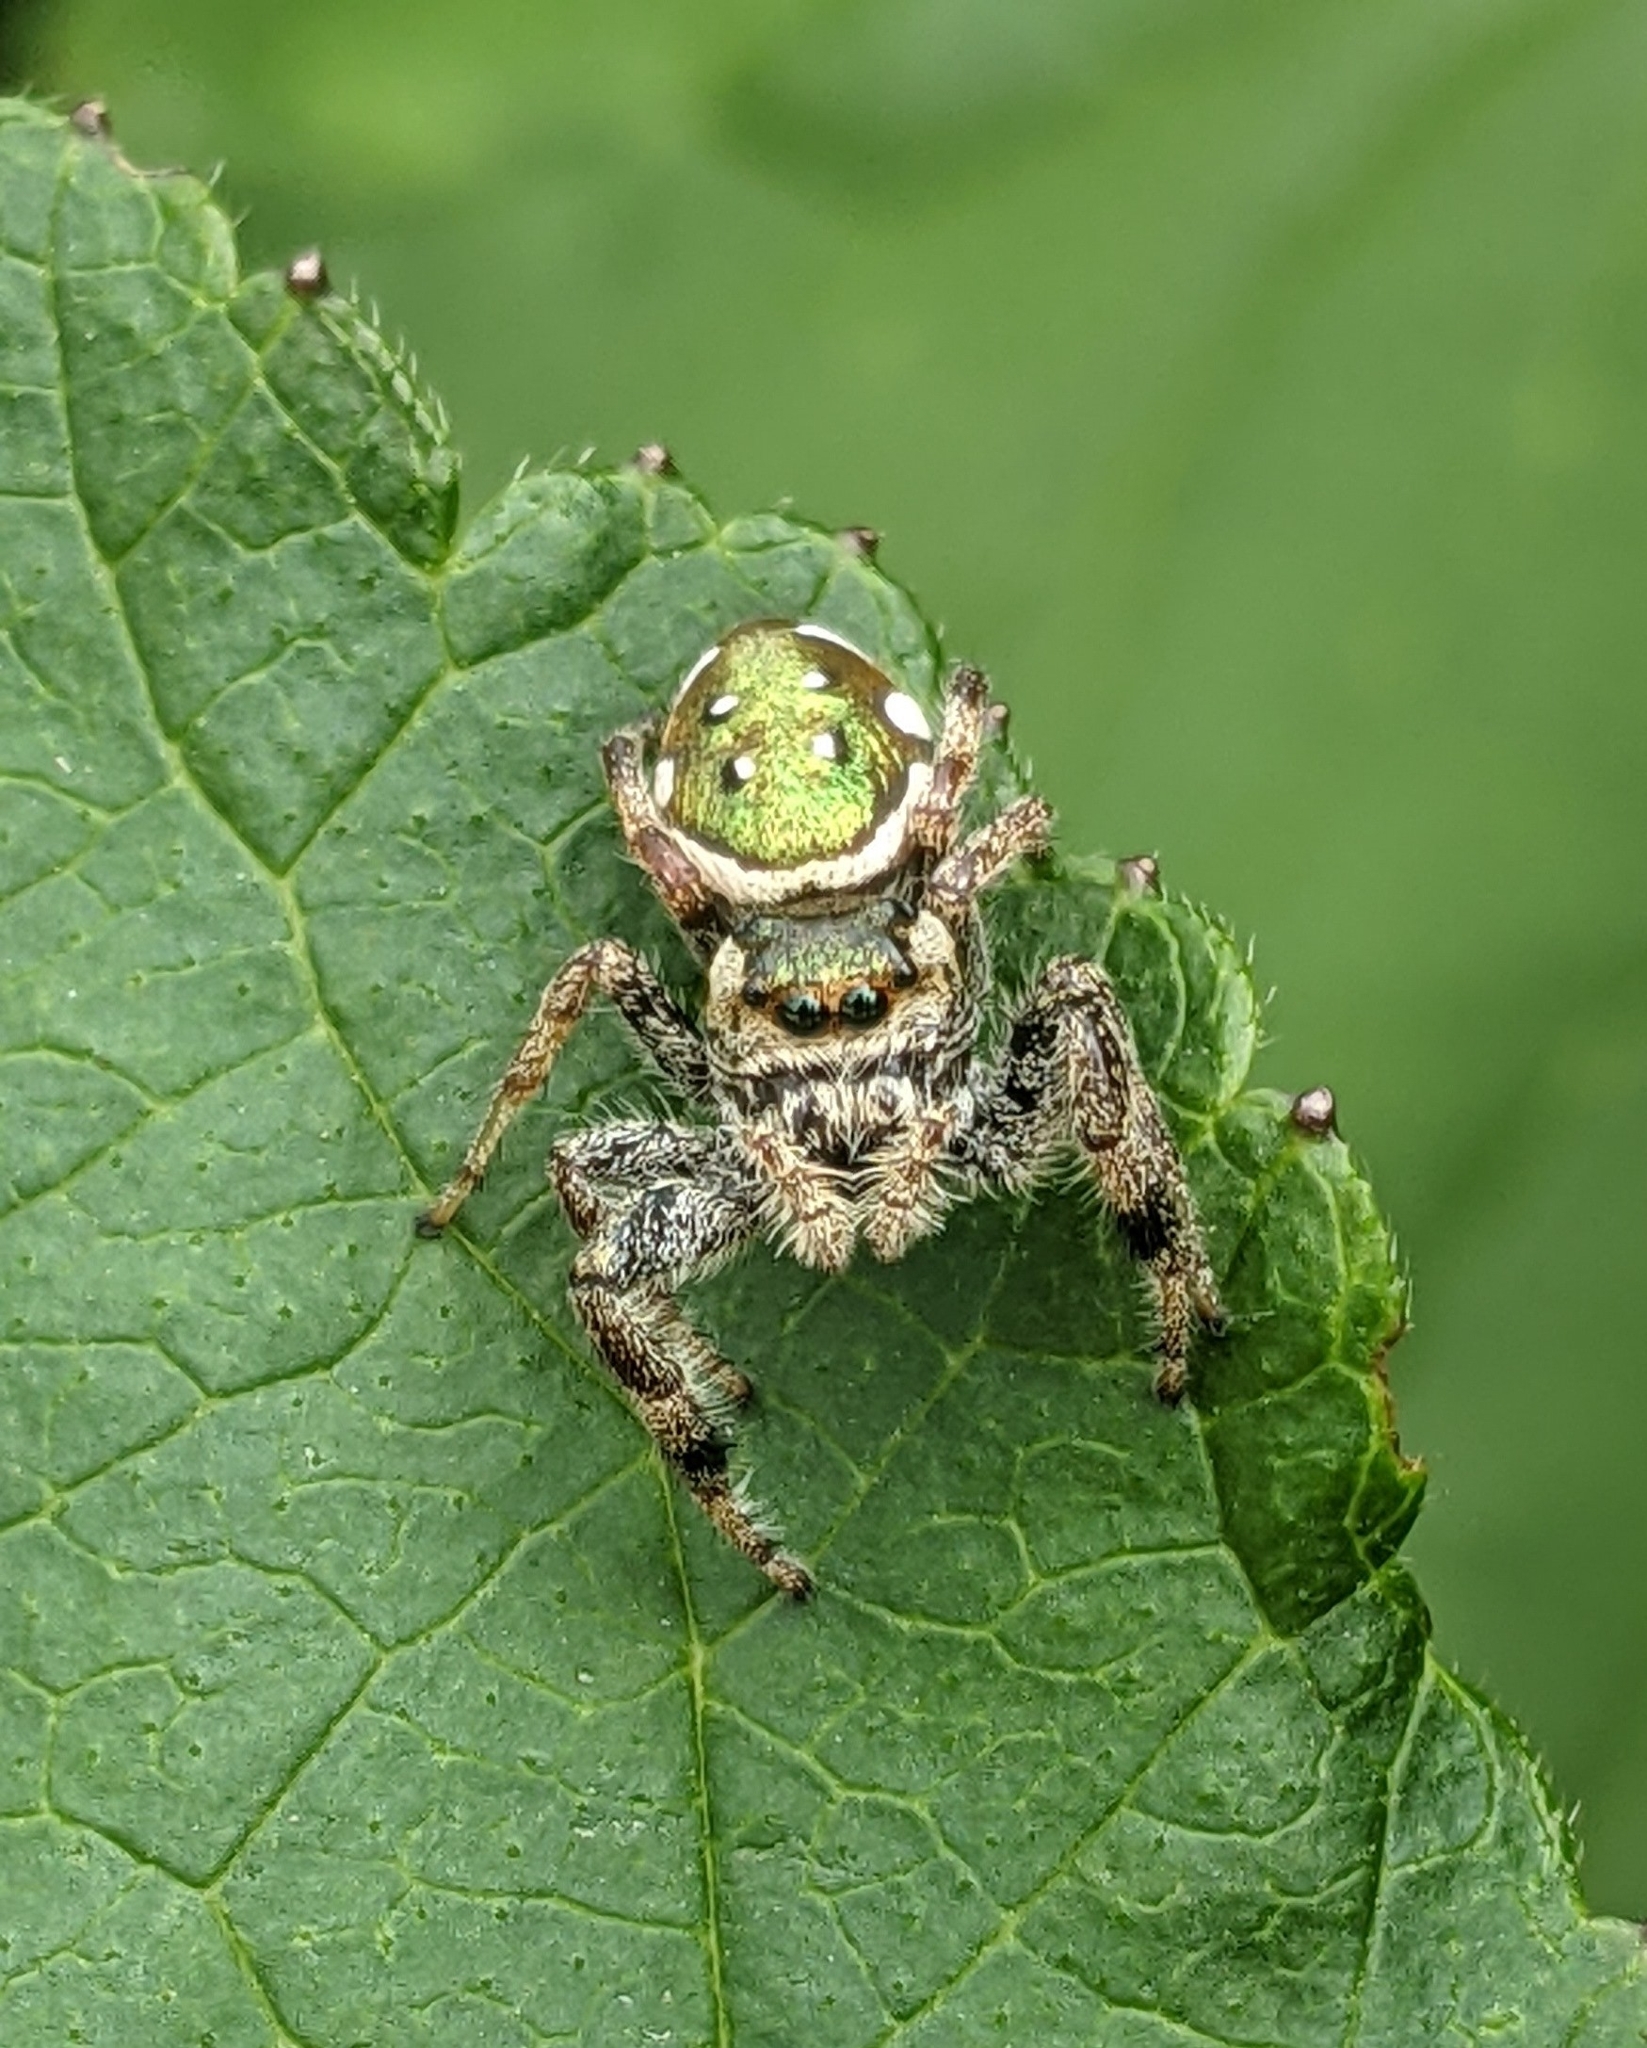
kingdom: Animalia
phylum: Arthropoda
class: Arachnida
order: Araneae
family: Salticidae
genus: Paraphidippus
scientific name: Paraphidippus aurantius
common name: Jumping spiders
